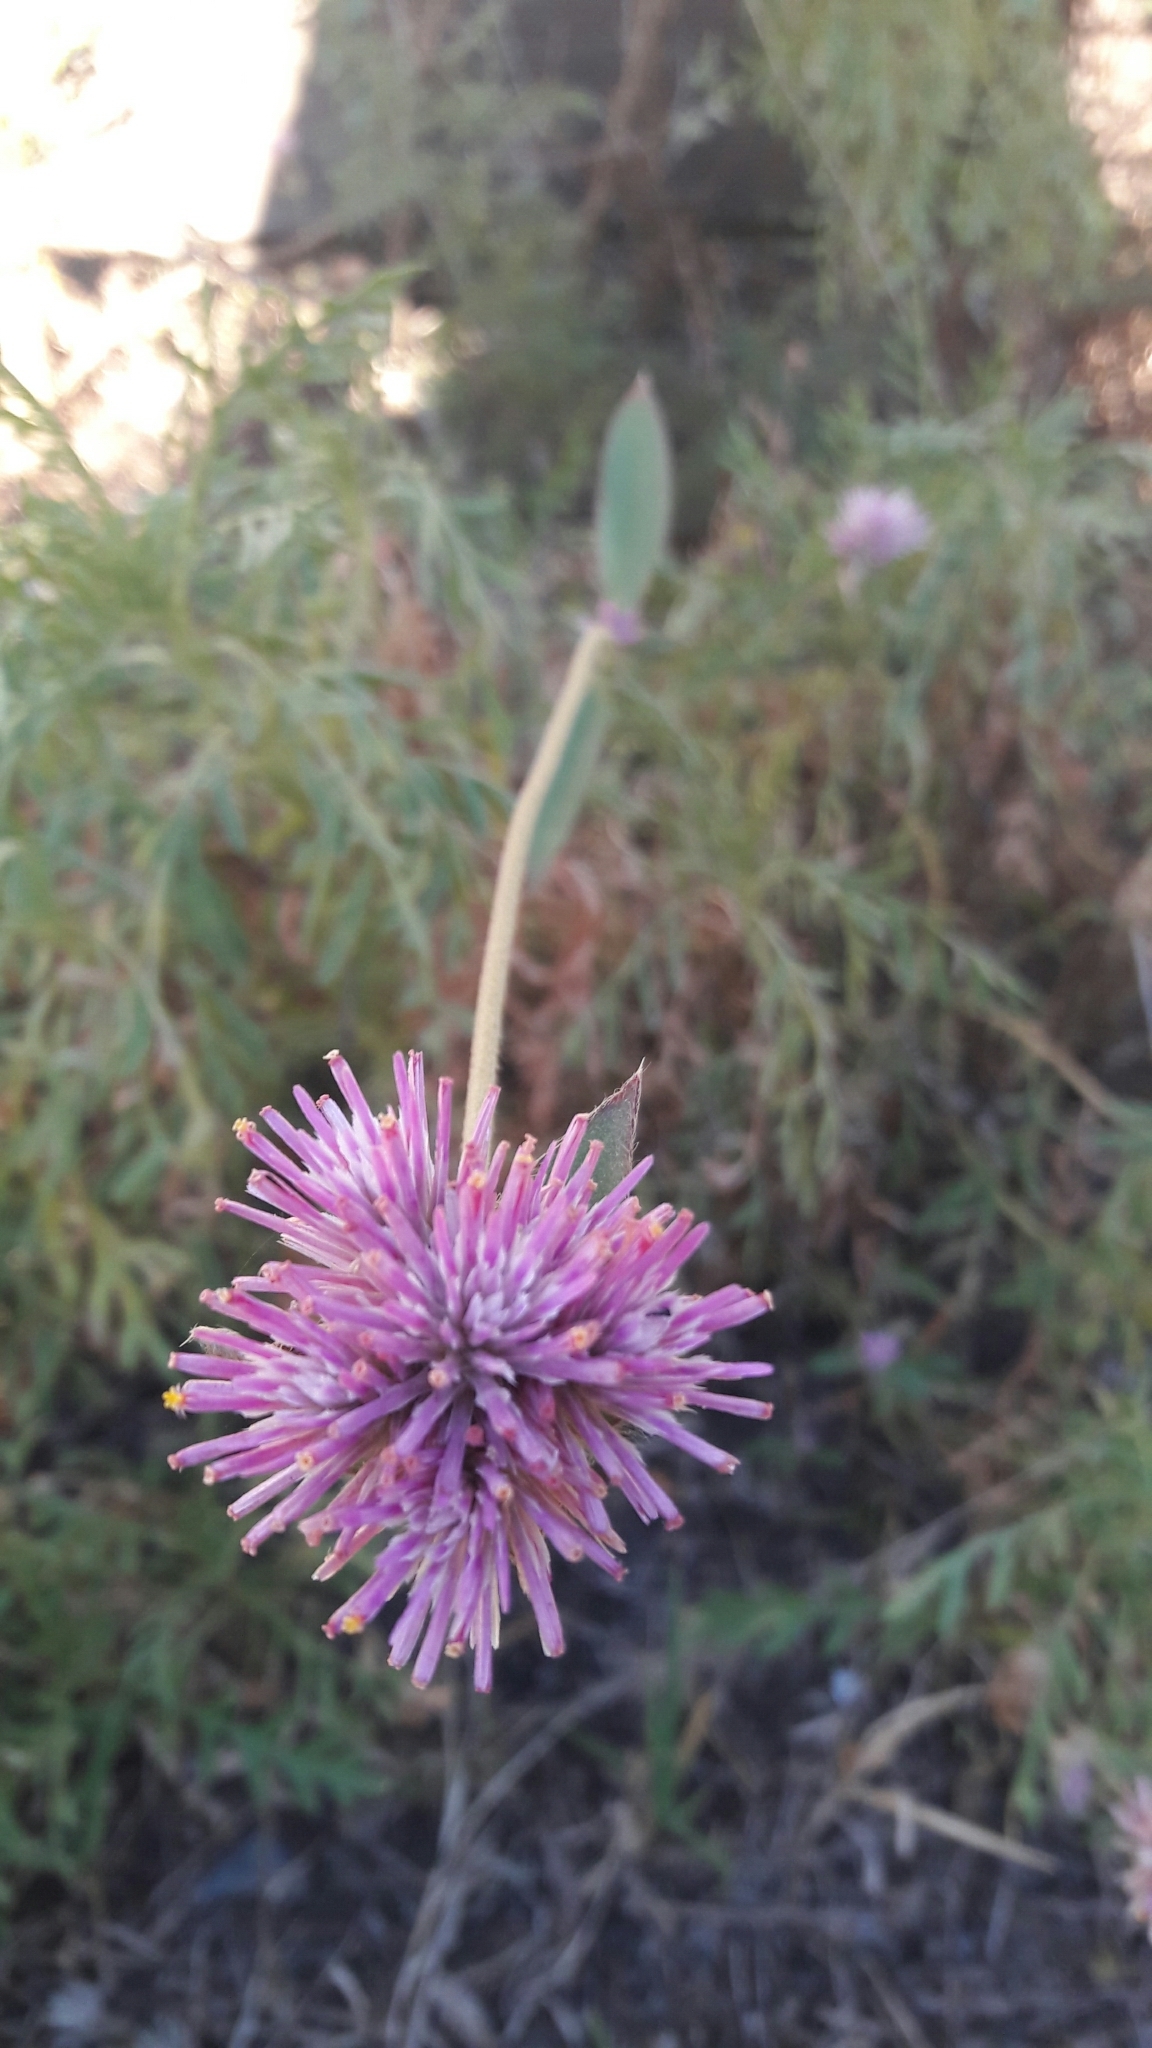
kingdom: Plantae
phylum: Tracheophyta
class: Magnoliopsida
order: Caryophyllales
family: Amaranthaceae
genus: Gomphrena
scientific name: Gomphrena pulchella
